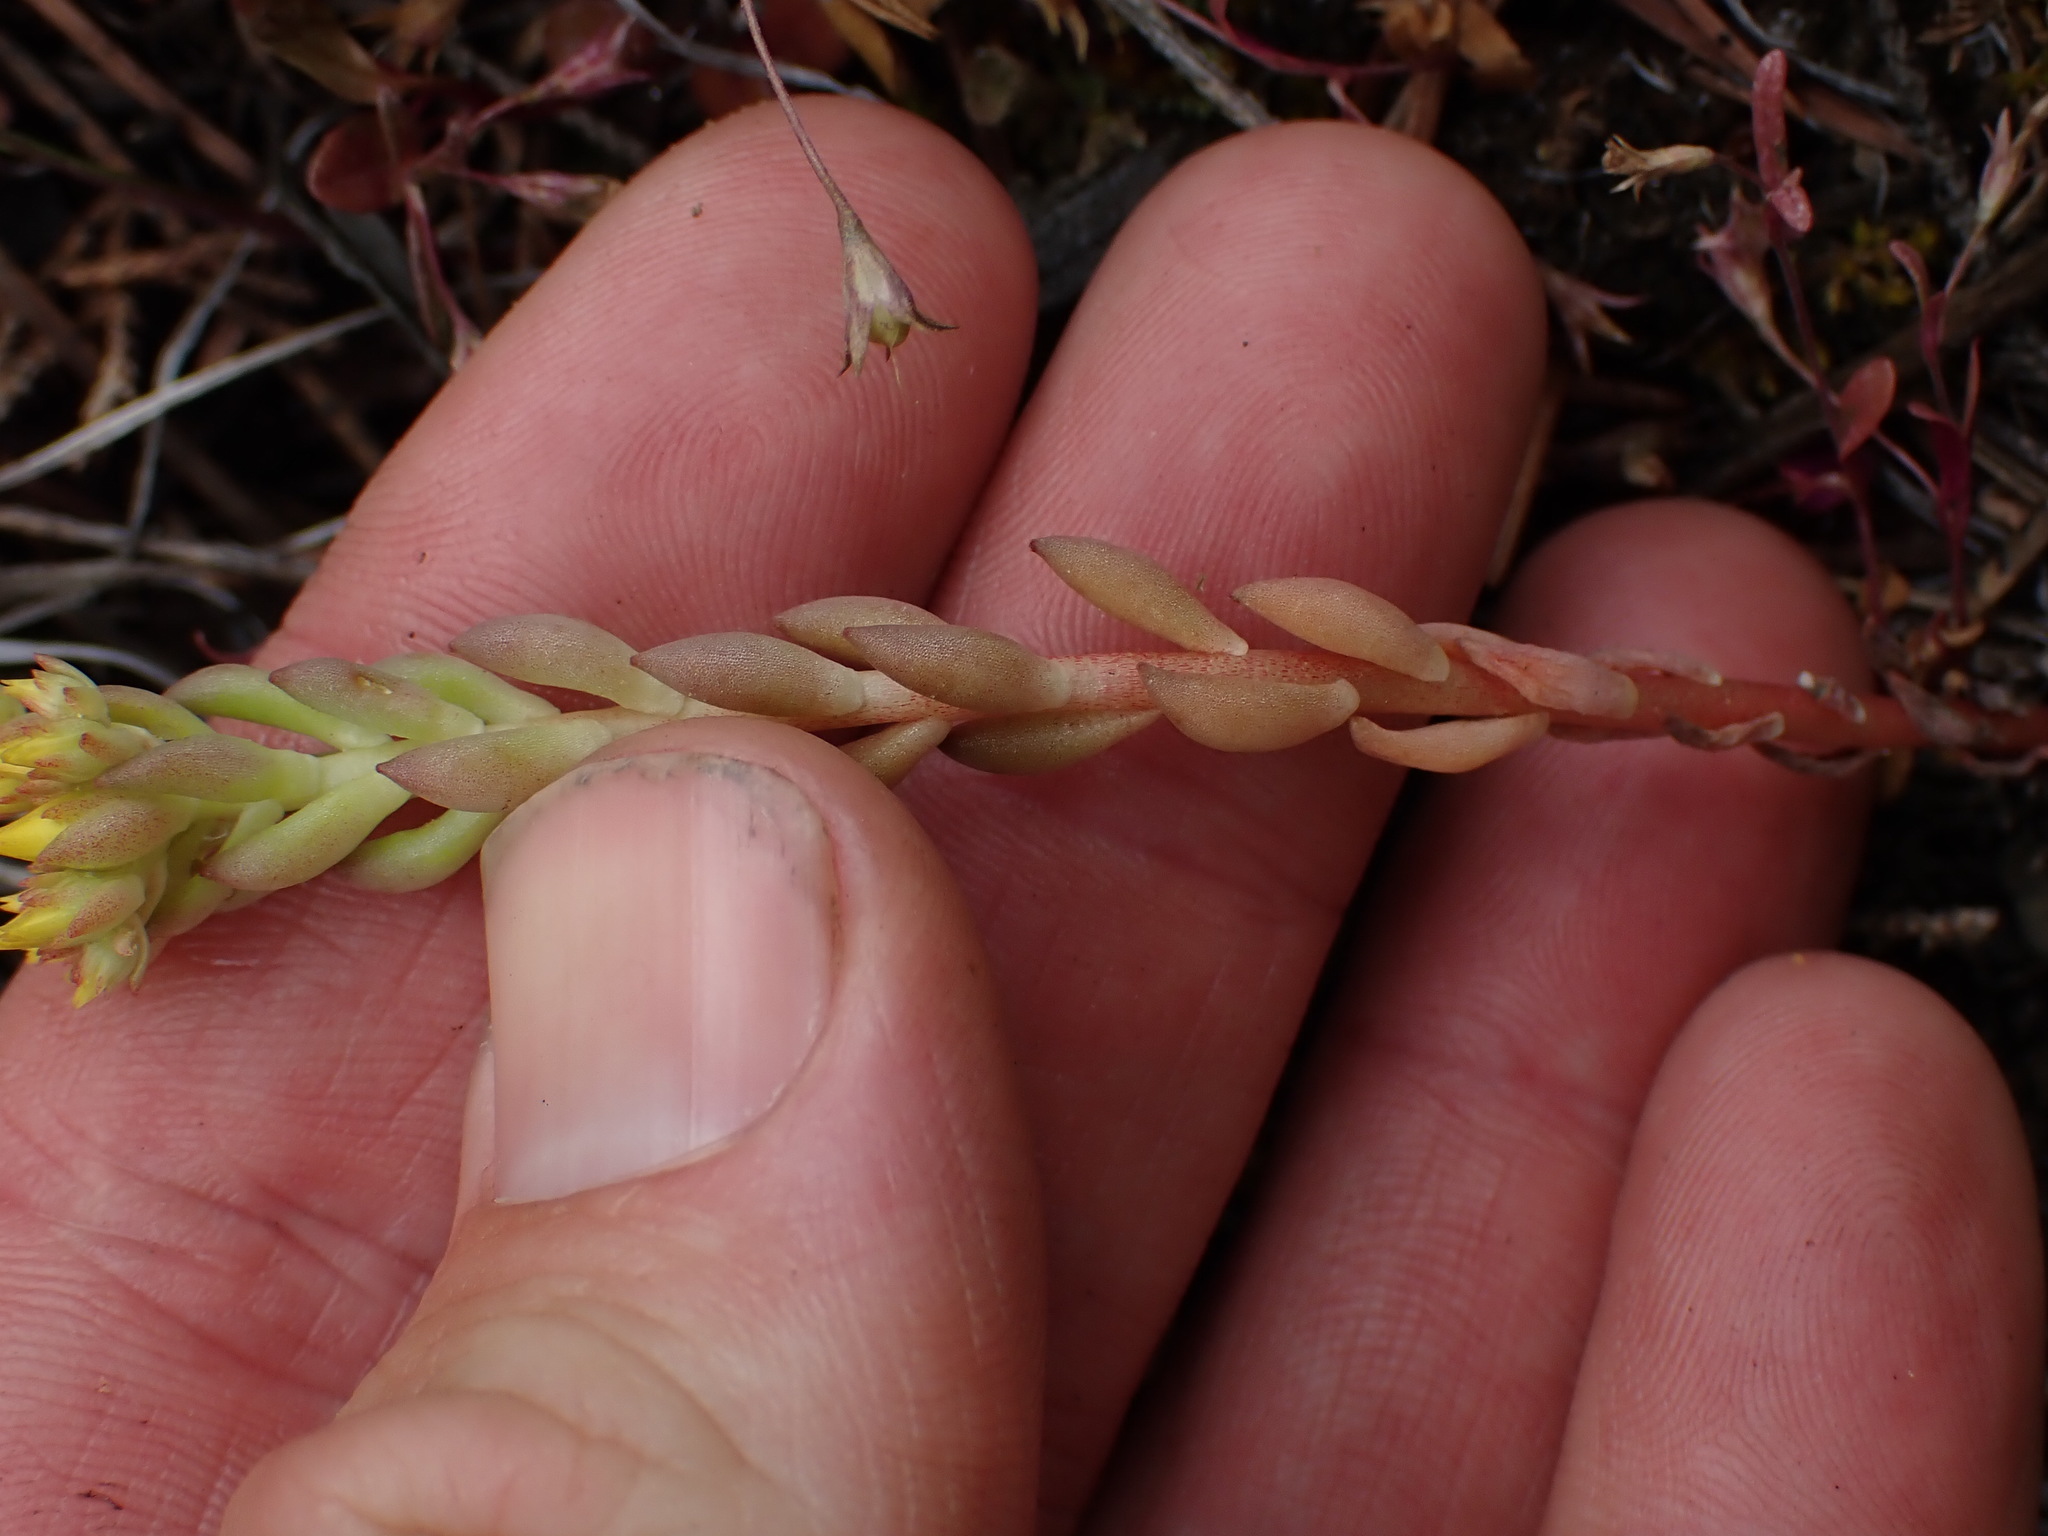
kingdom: Plantae
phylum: Tracheophyta
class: Magnoliopsida
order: Saxifragales
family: Crassulaceae
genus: Sedum
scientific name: Sedum lanceolatum
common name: Common stonecrop
